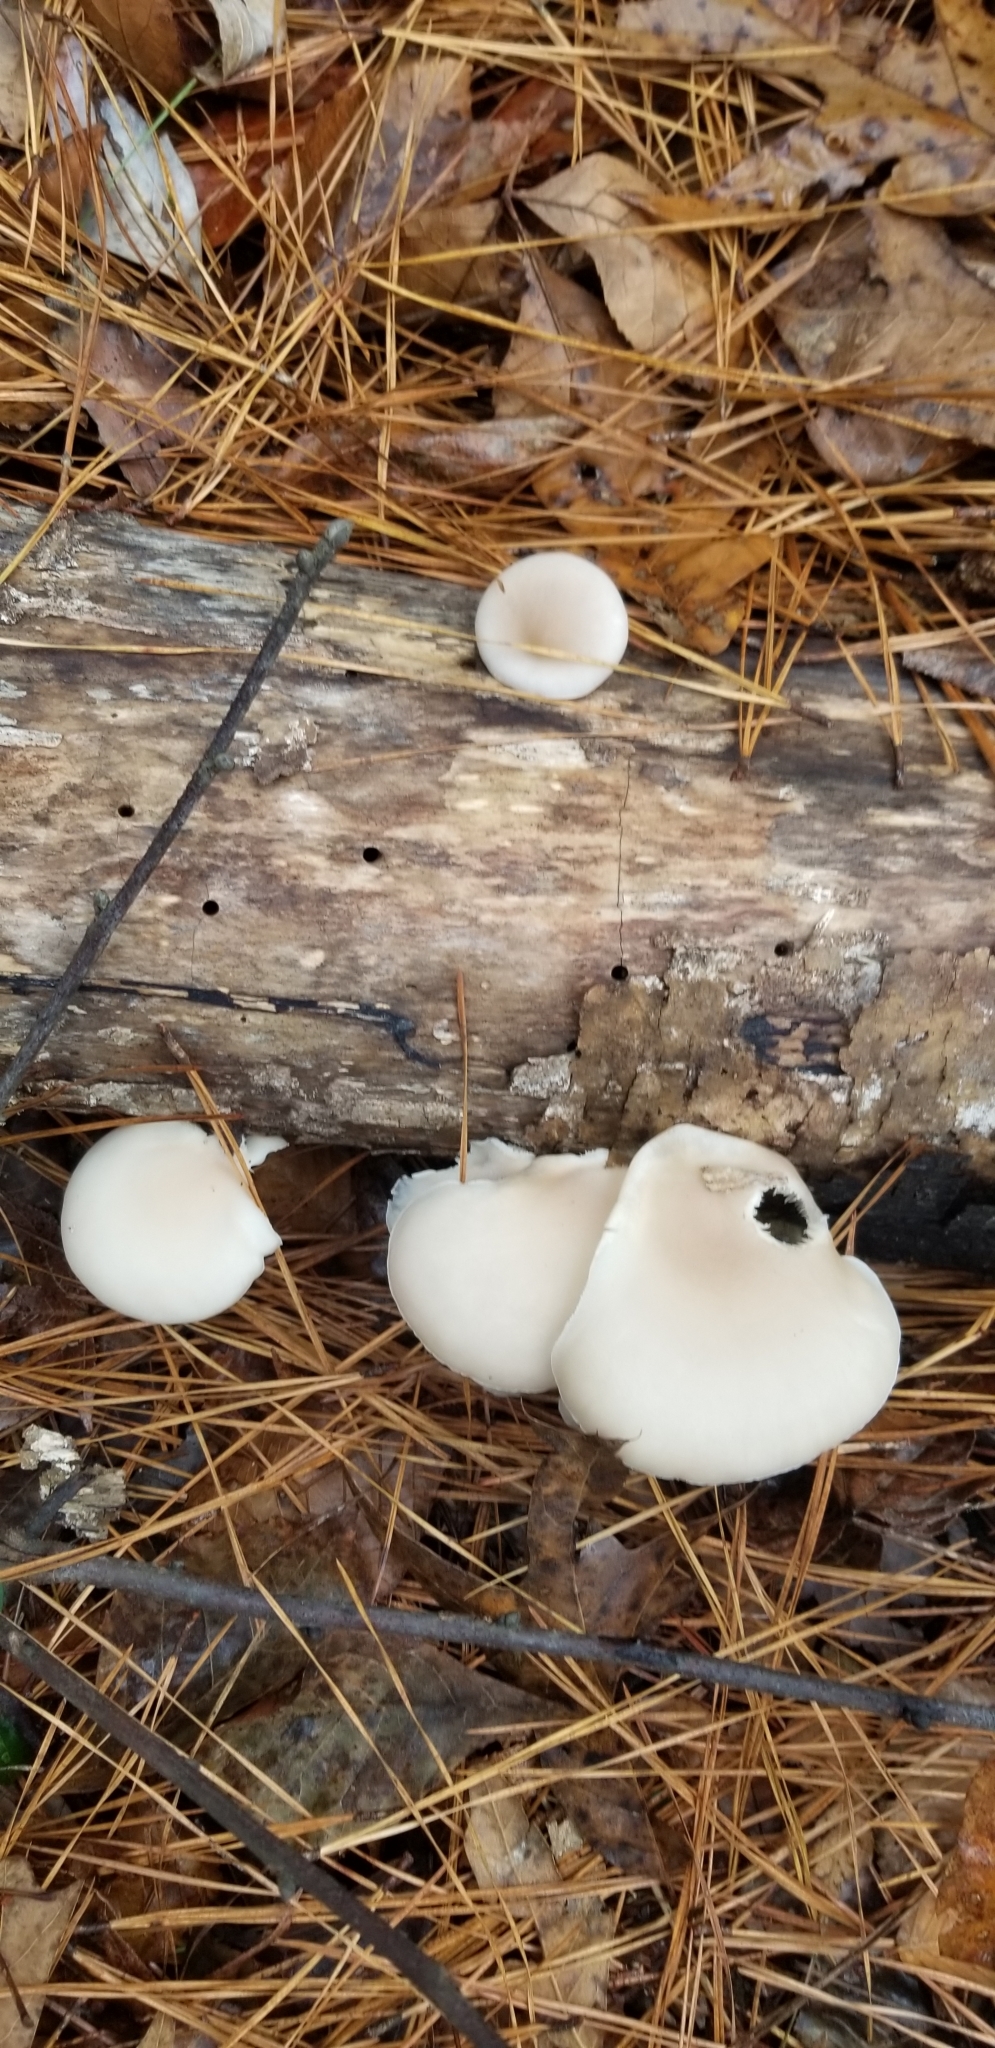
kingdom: Fungi
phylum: Basidiomycota
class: Agaricomycetes
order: Agaricales
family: Pleurotaceae
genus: Pleurotus
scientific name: Pleurotus pulmonarius
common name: Pale oyster
